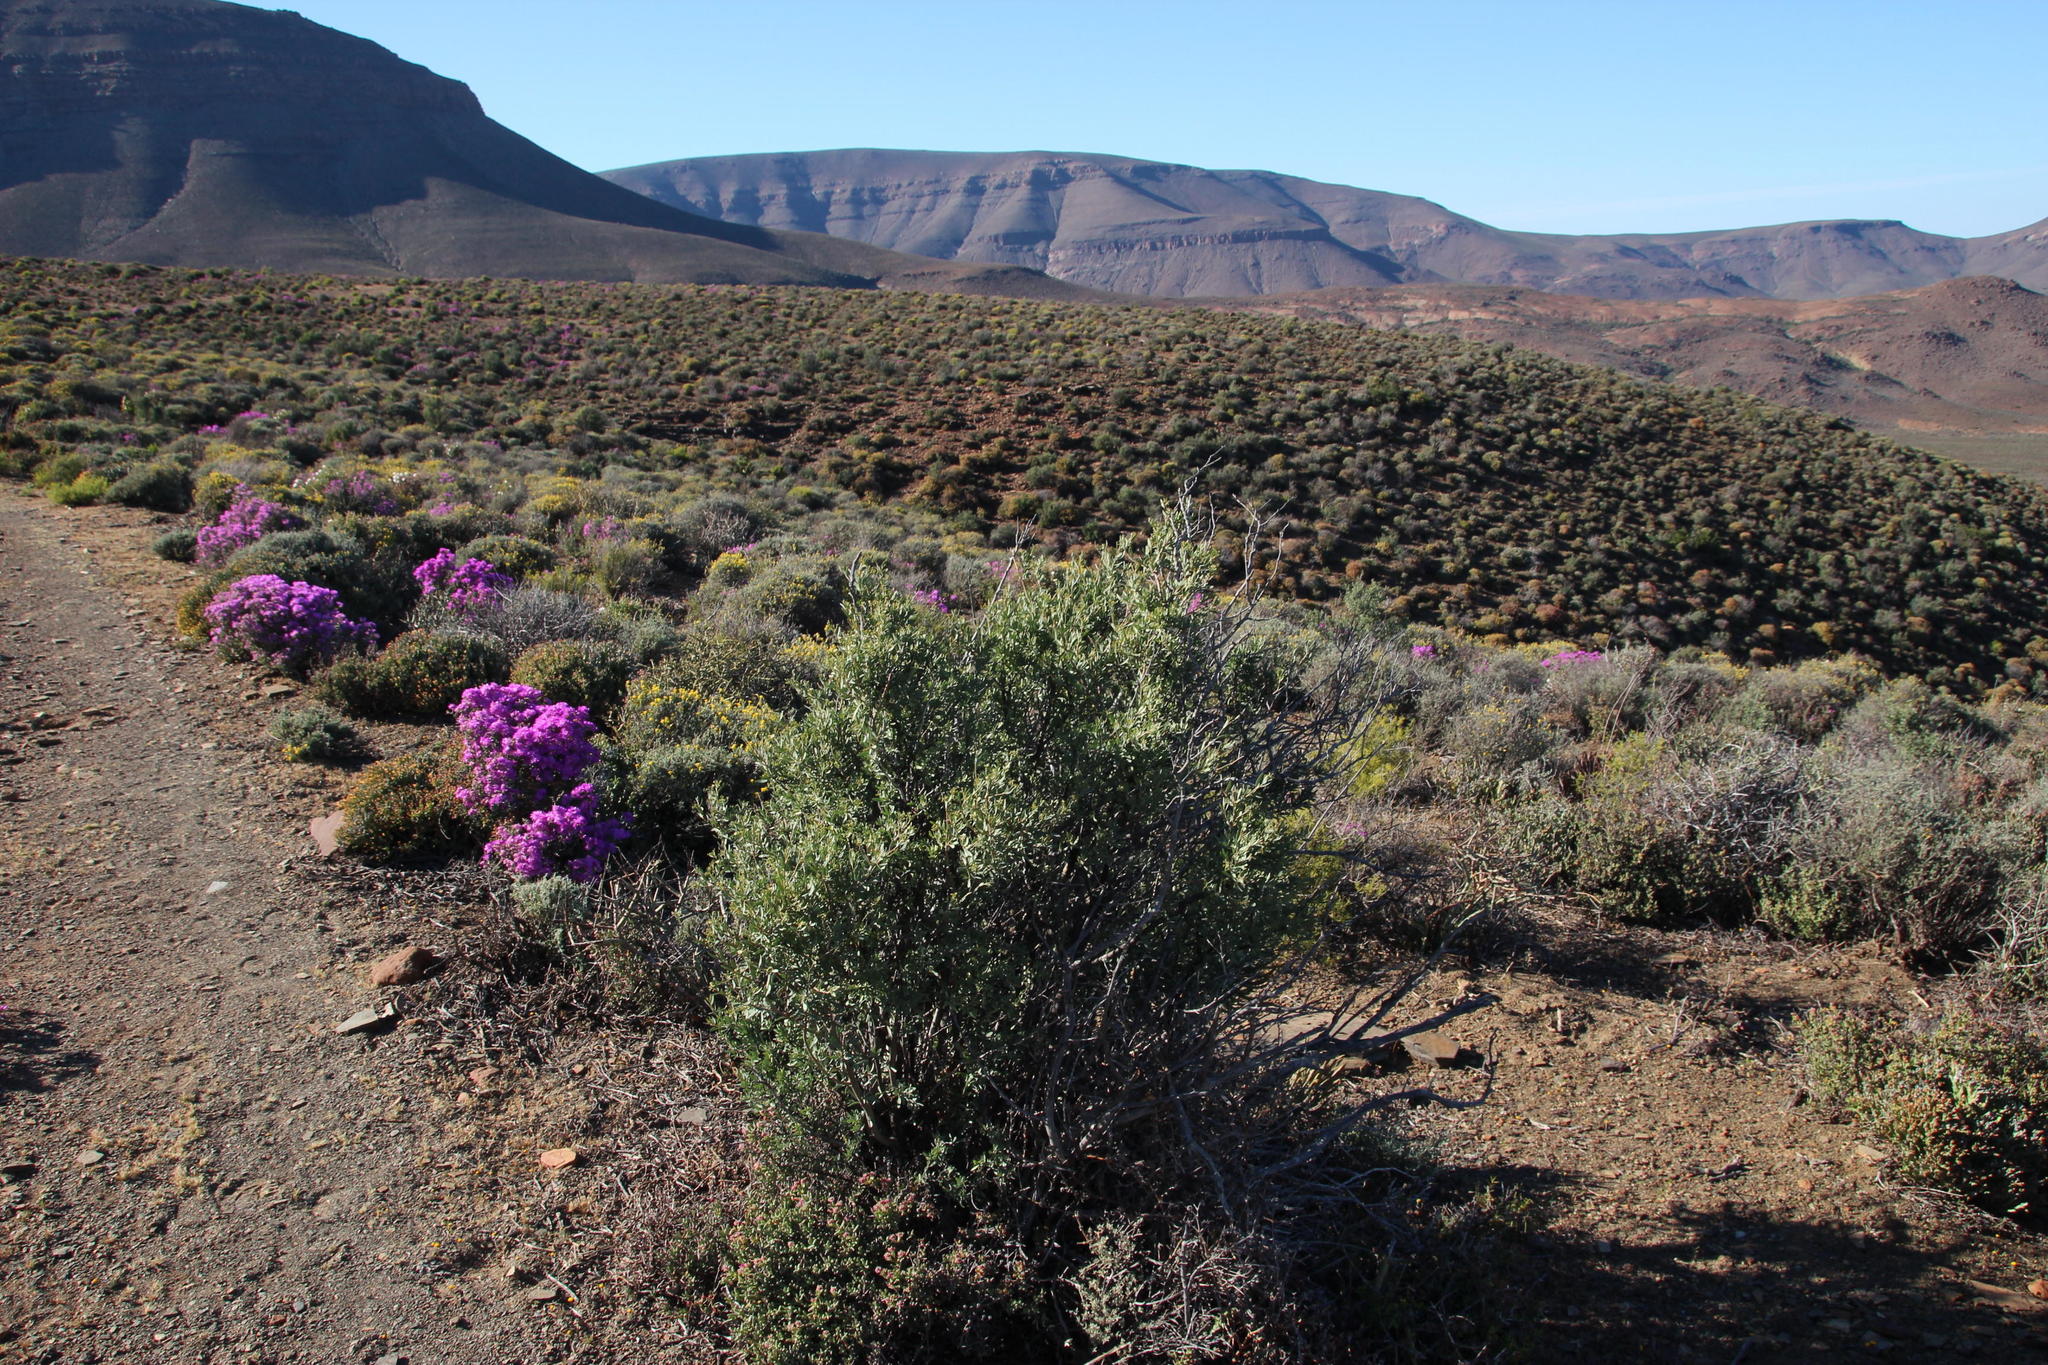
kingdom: Plantae
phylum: Tracheophyta
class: Magnoliopsida
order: Solanales
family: Montiniaceae
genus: Montinia
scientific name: Montinia caryophyllacea
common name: Wild clove-bush
